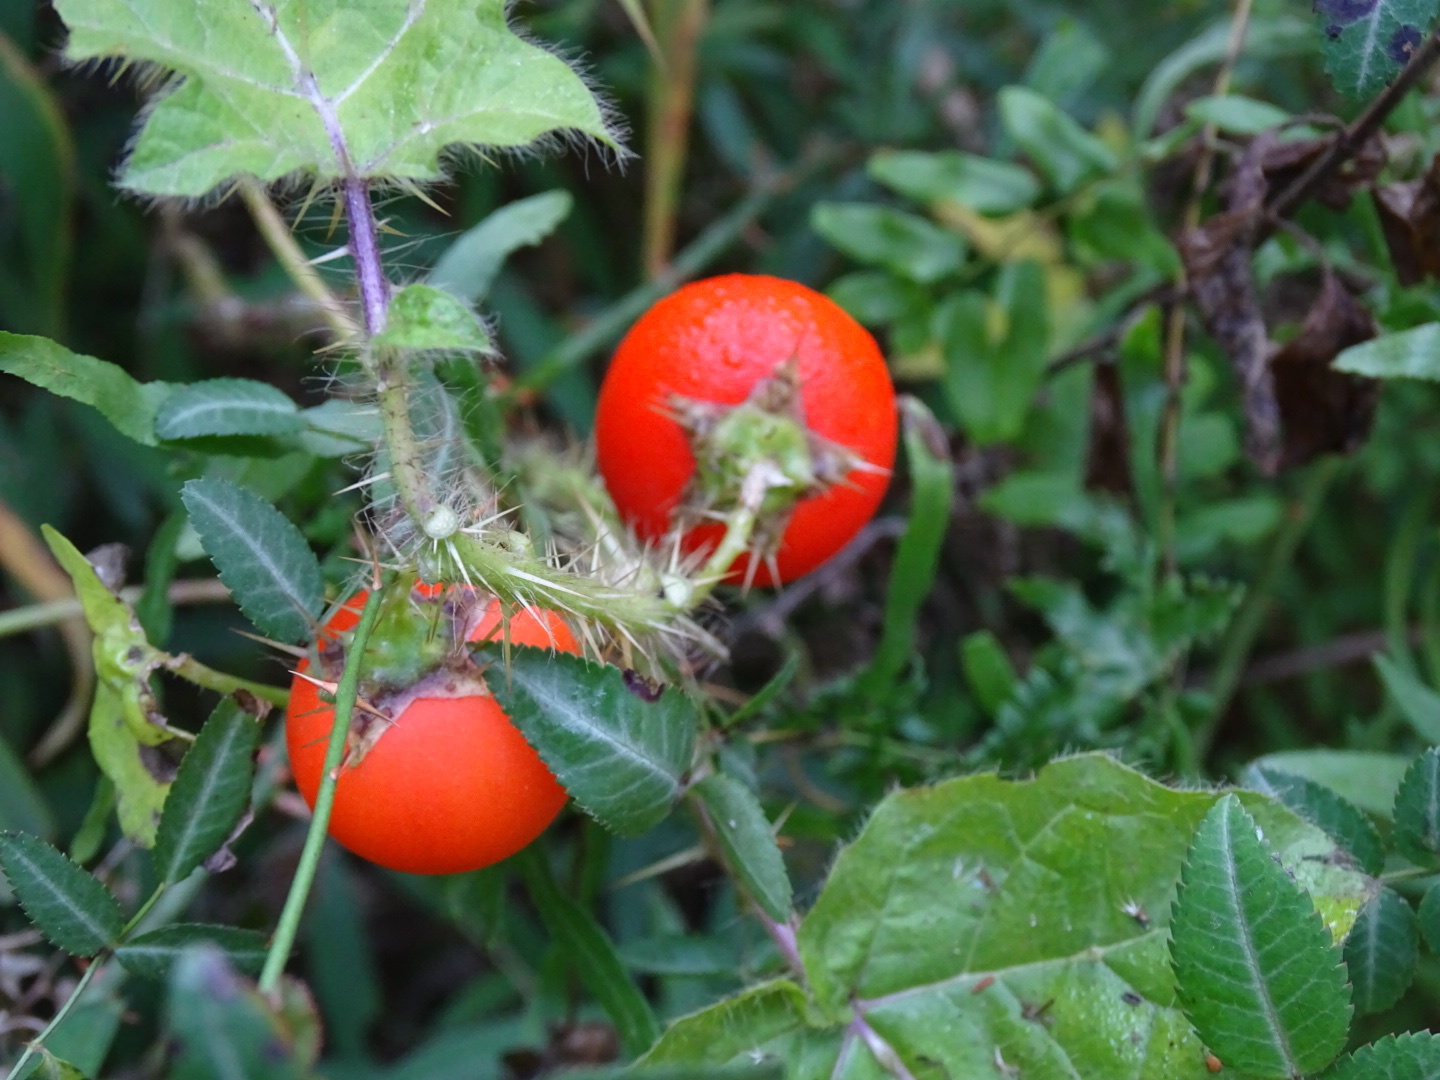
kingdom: Plantae
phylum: Tracheophyta
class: Magnoliopsida
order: Solanales
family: Solanaceae
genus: Solanum
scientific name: Solanum capsicoides
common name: Cockroach berry
